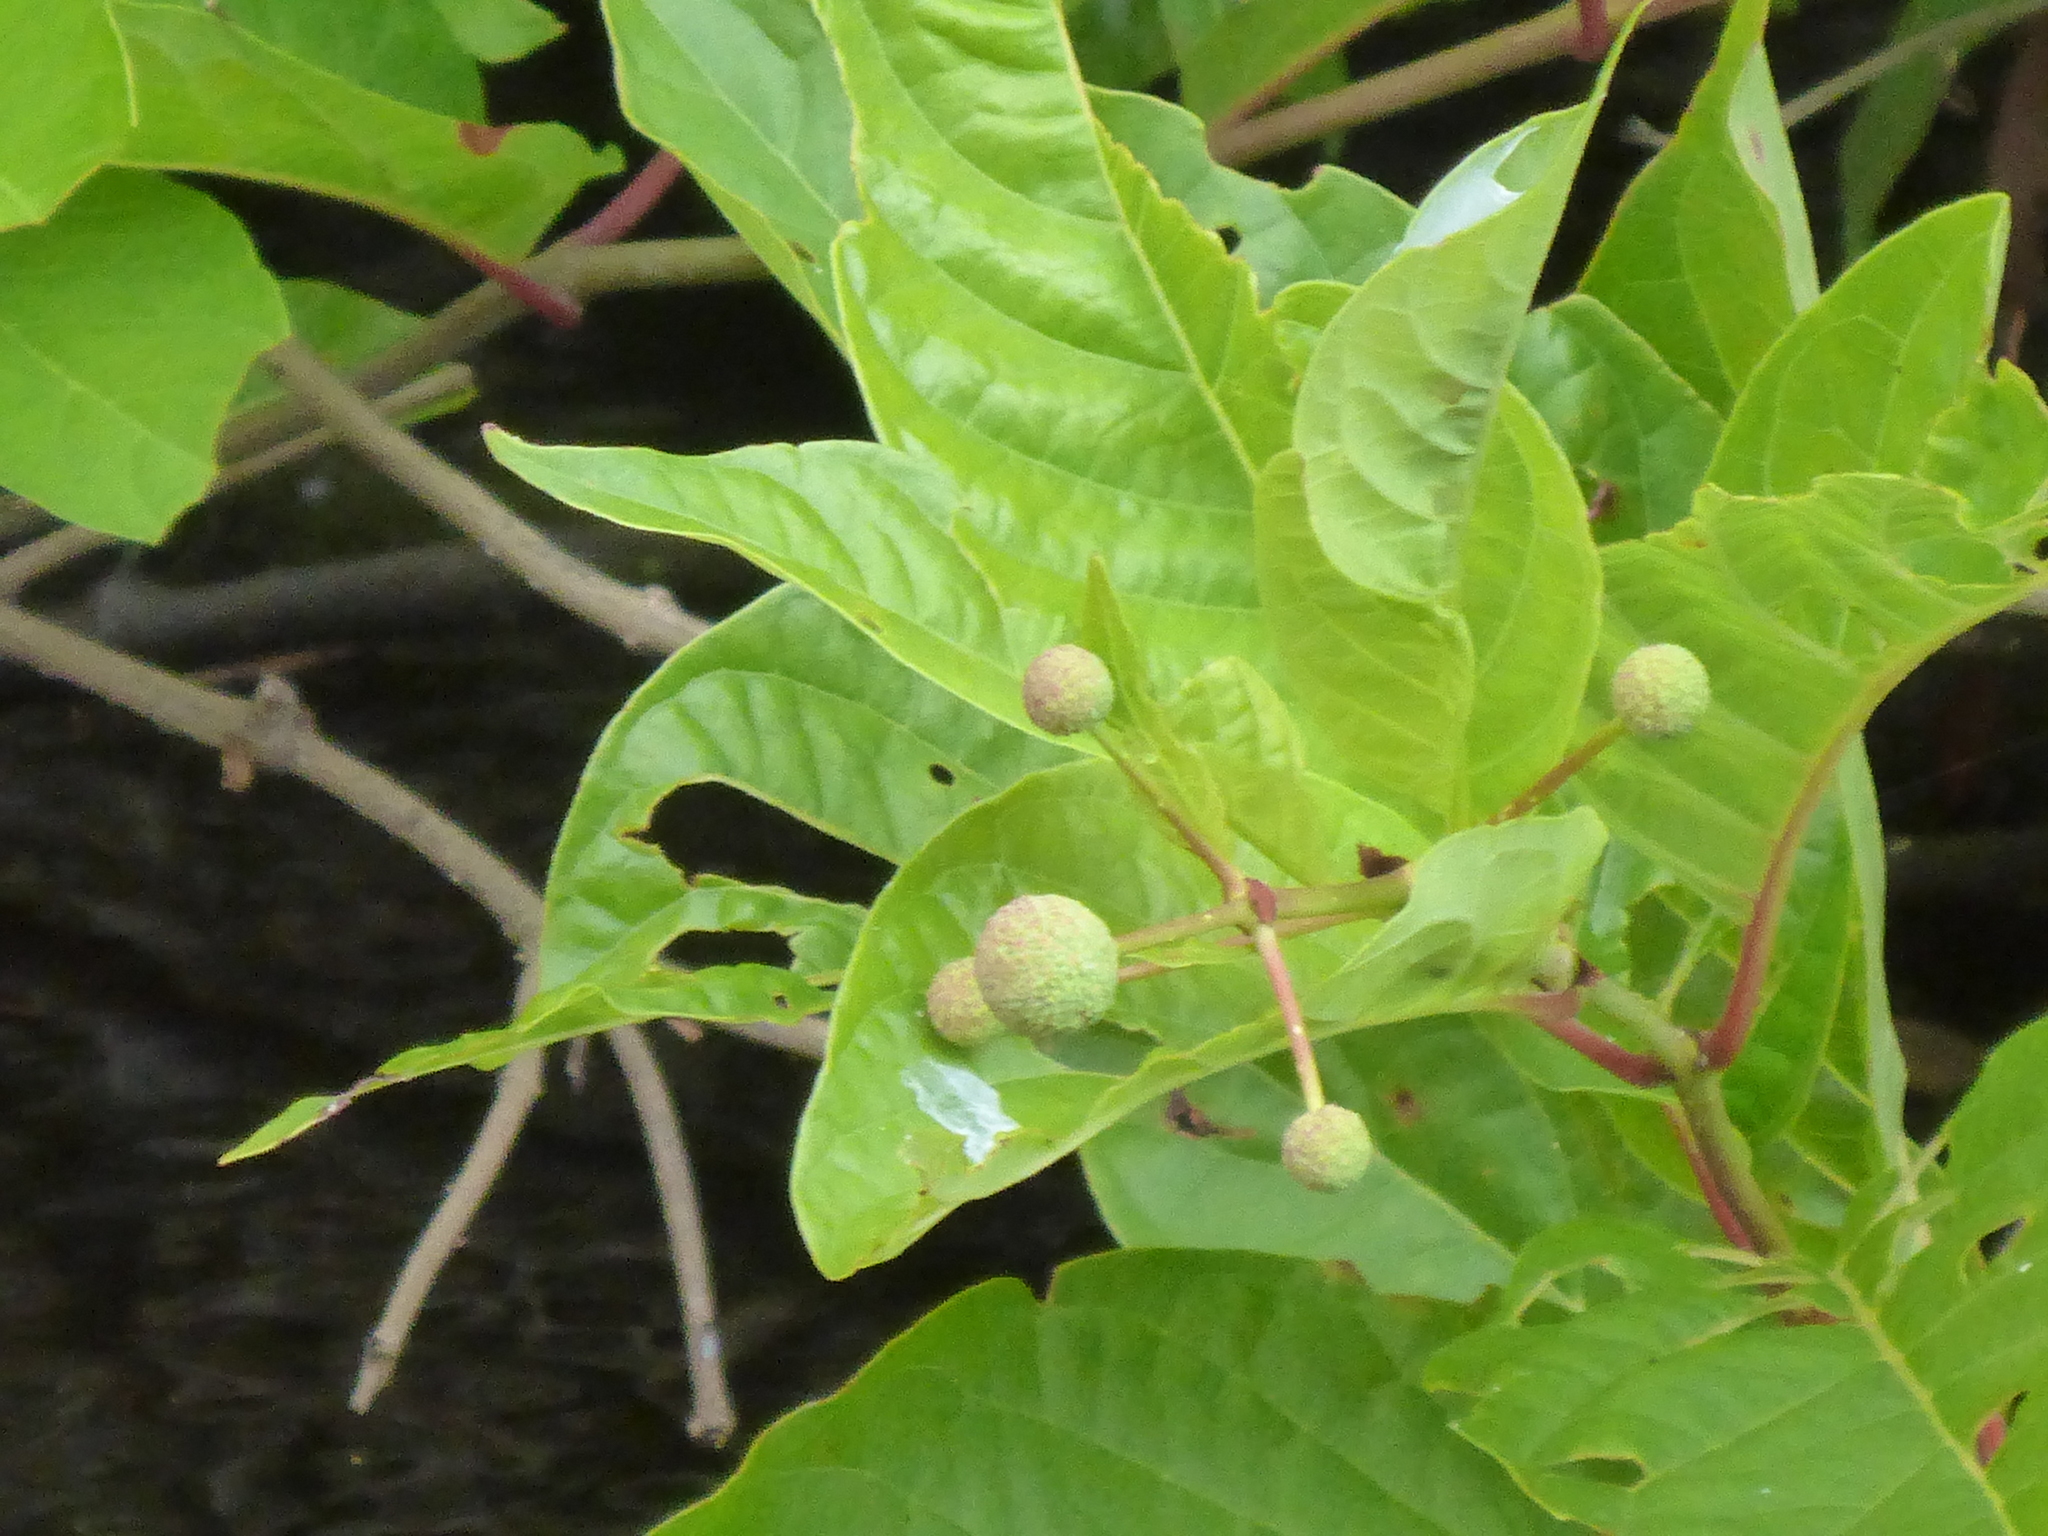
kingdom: Plantae
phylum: Tracheophyta
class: Magnoliopsida
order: Gentianales
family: Rubiaceae
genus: Cephalanthus
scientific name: Cephalanthus occidentalis
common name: Button-willow
